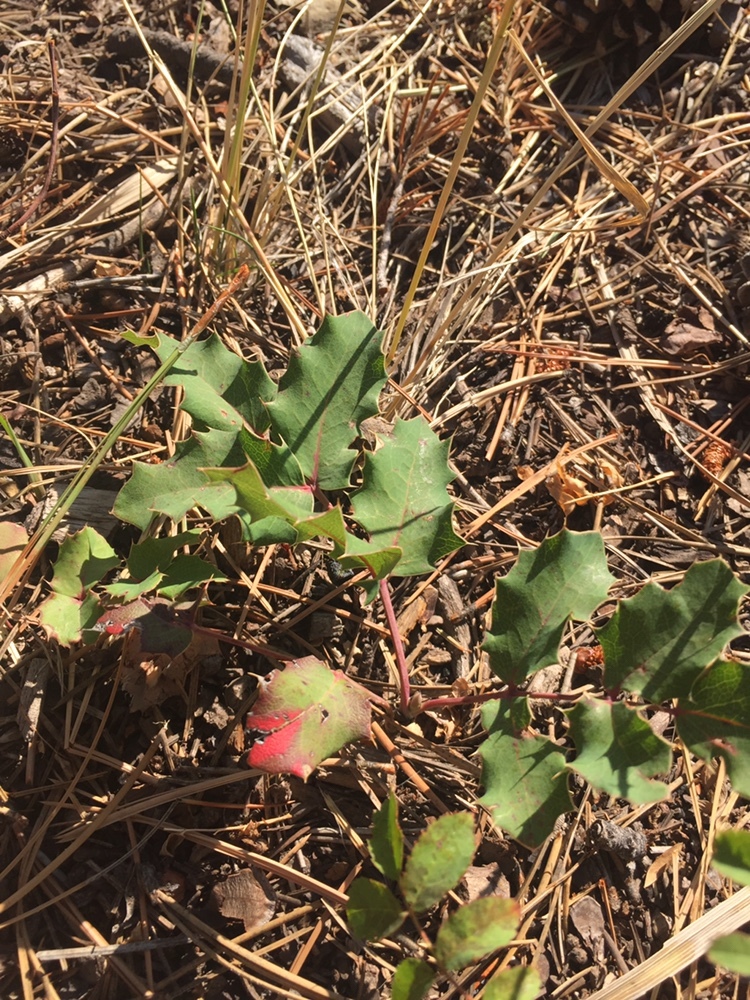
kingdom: Plantae
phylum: Tracheophyta
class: Magnoliopsida
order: Ranunculales
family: Berberidaceae
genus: Mahonia
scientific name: Mahonia repens
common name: Creeping oregon-grape
